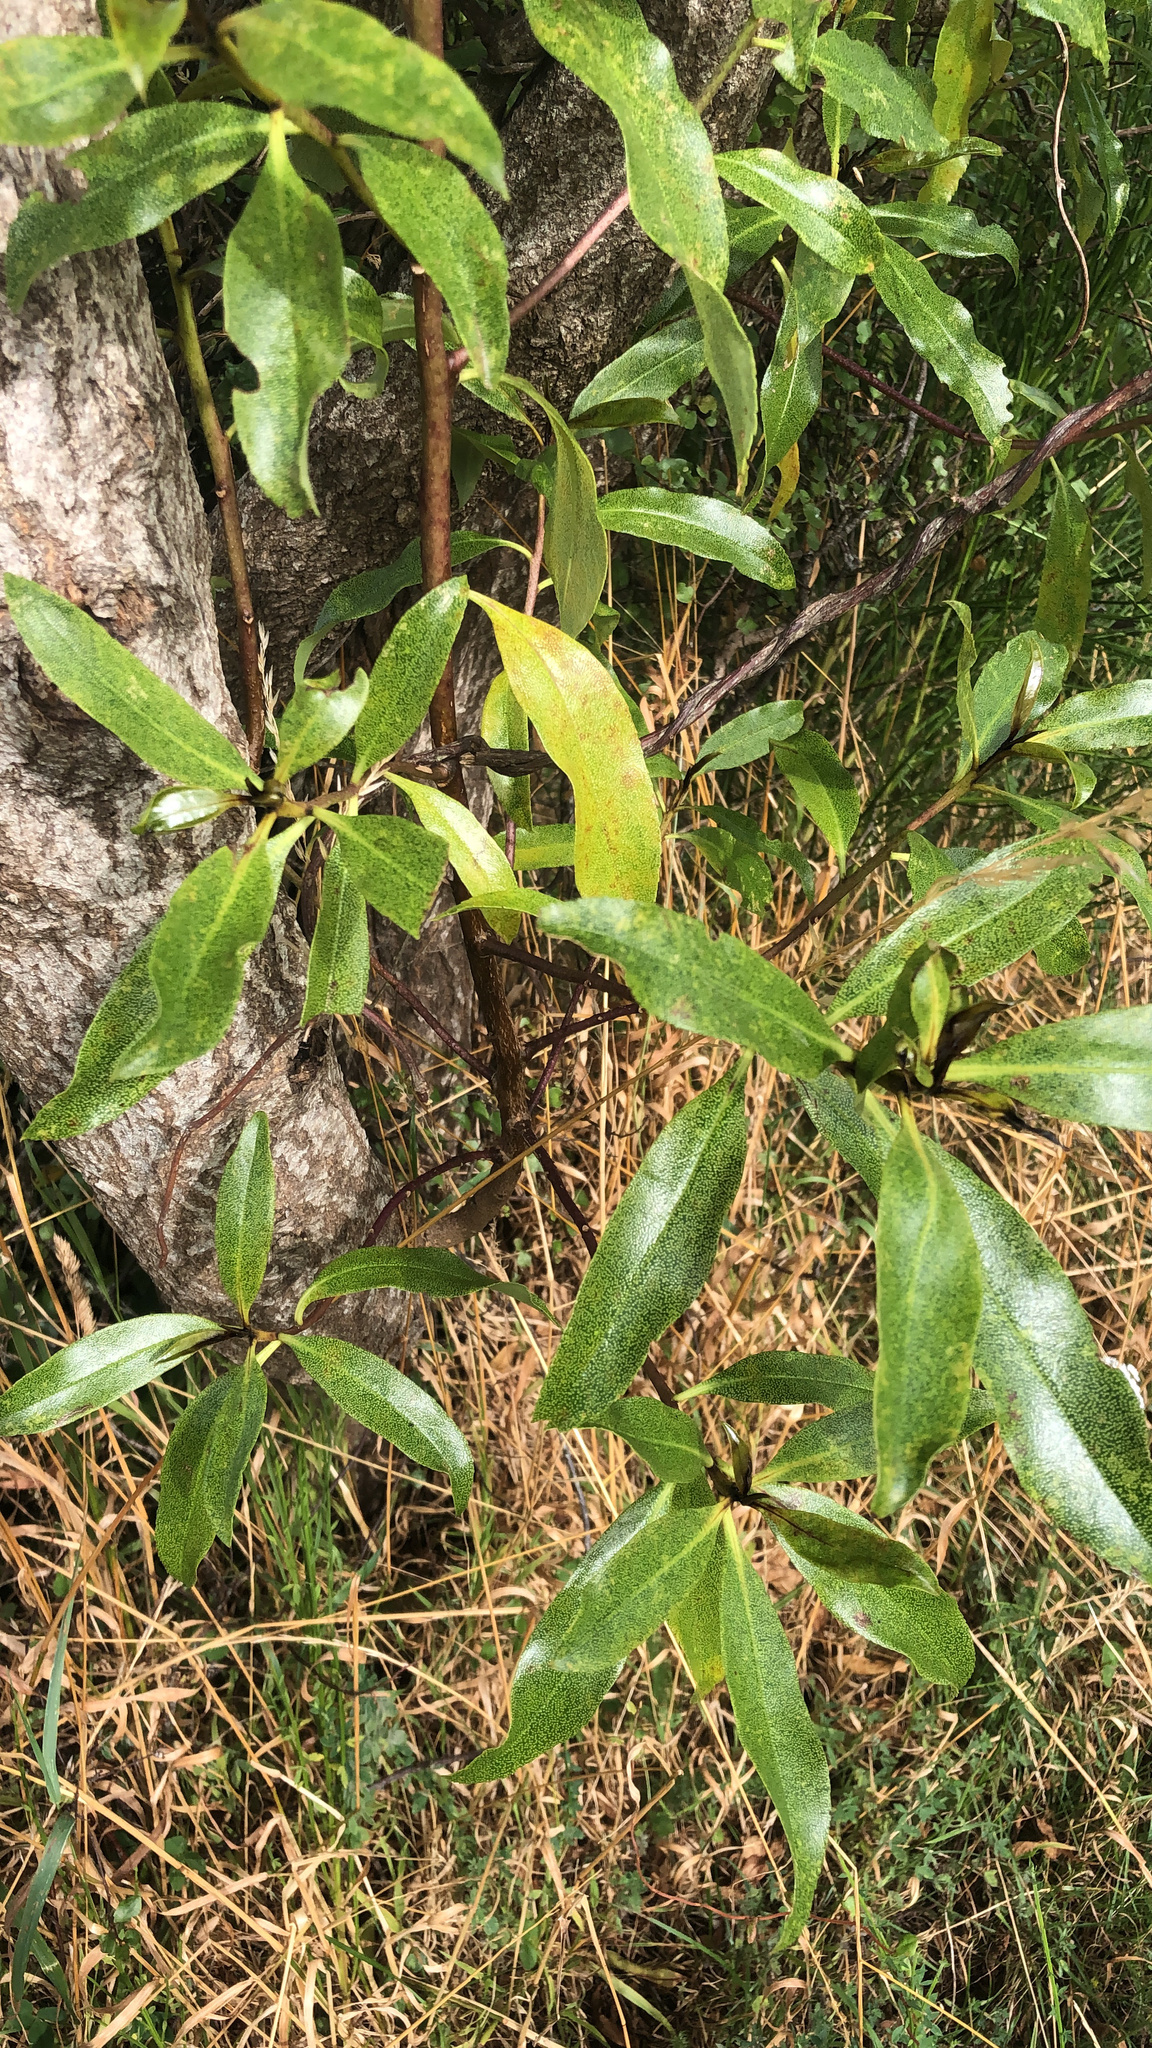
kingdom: Plantae
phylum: Tracheophyta
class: Magnoliopsida
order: Lamiales
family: Scrophulariaceae
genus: Myoporum
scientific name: Myoporum laetum
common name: Ngaio tree
